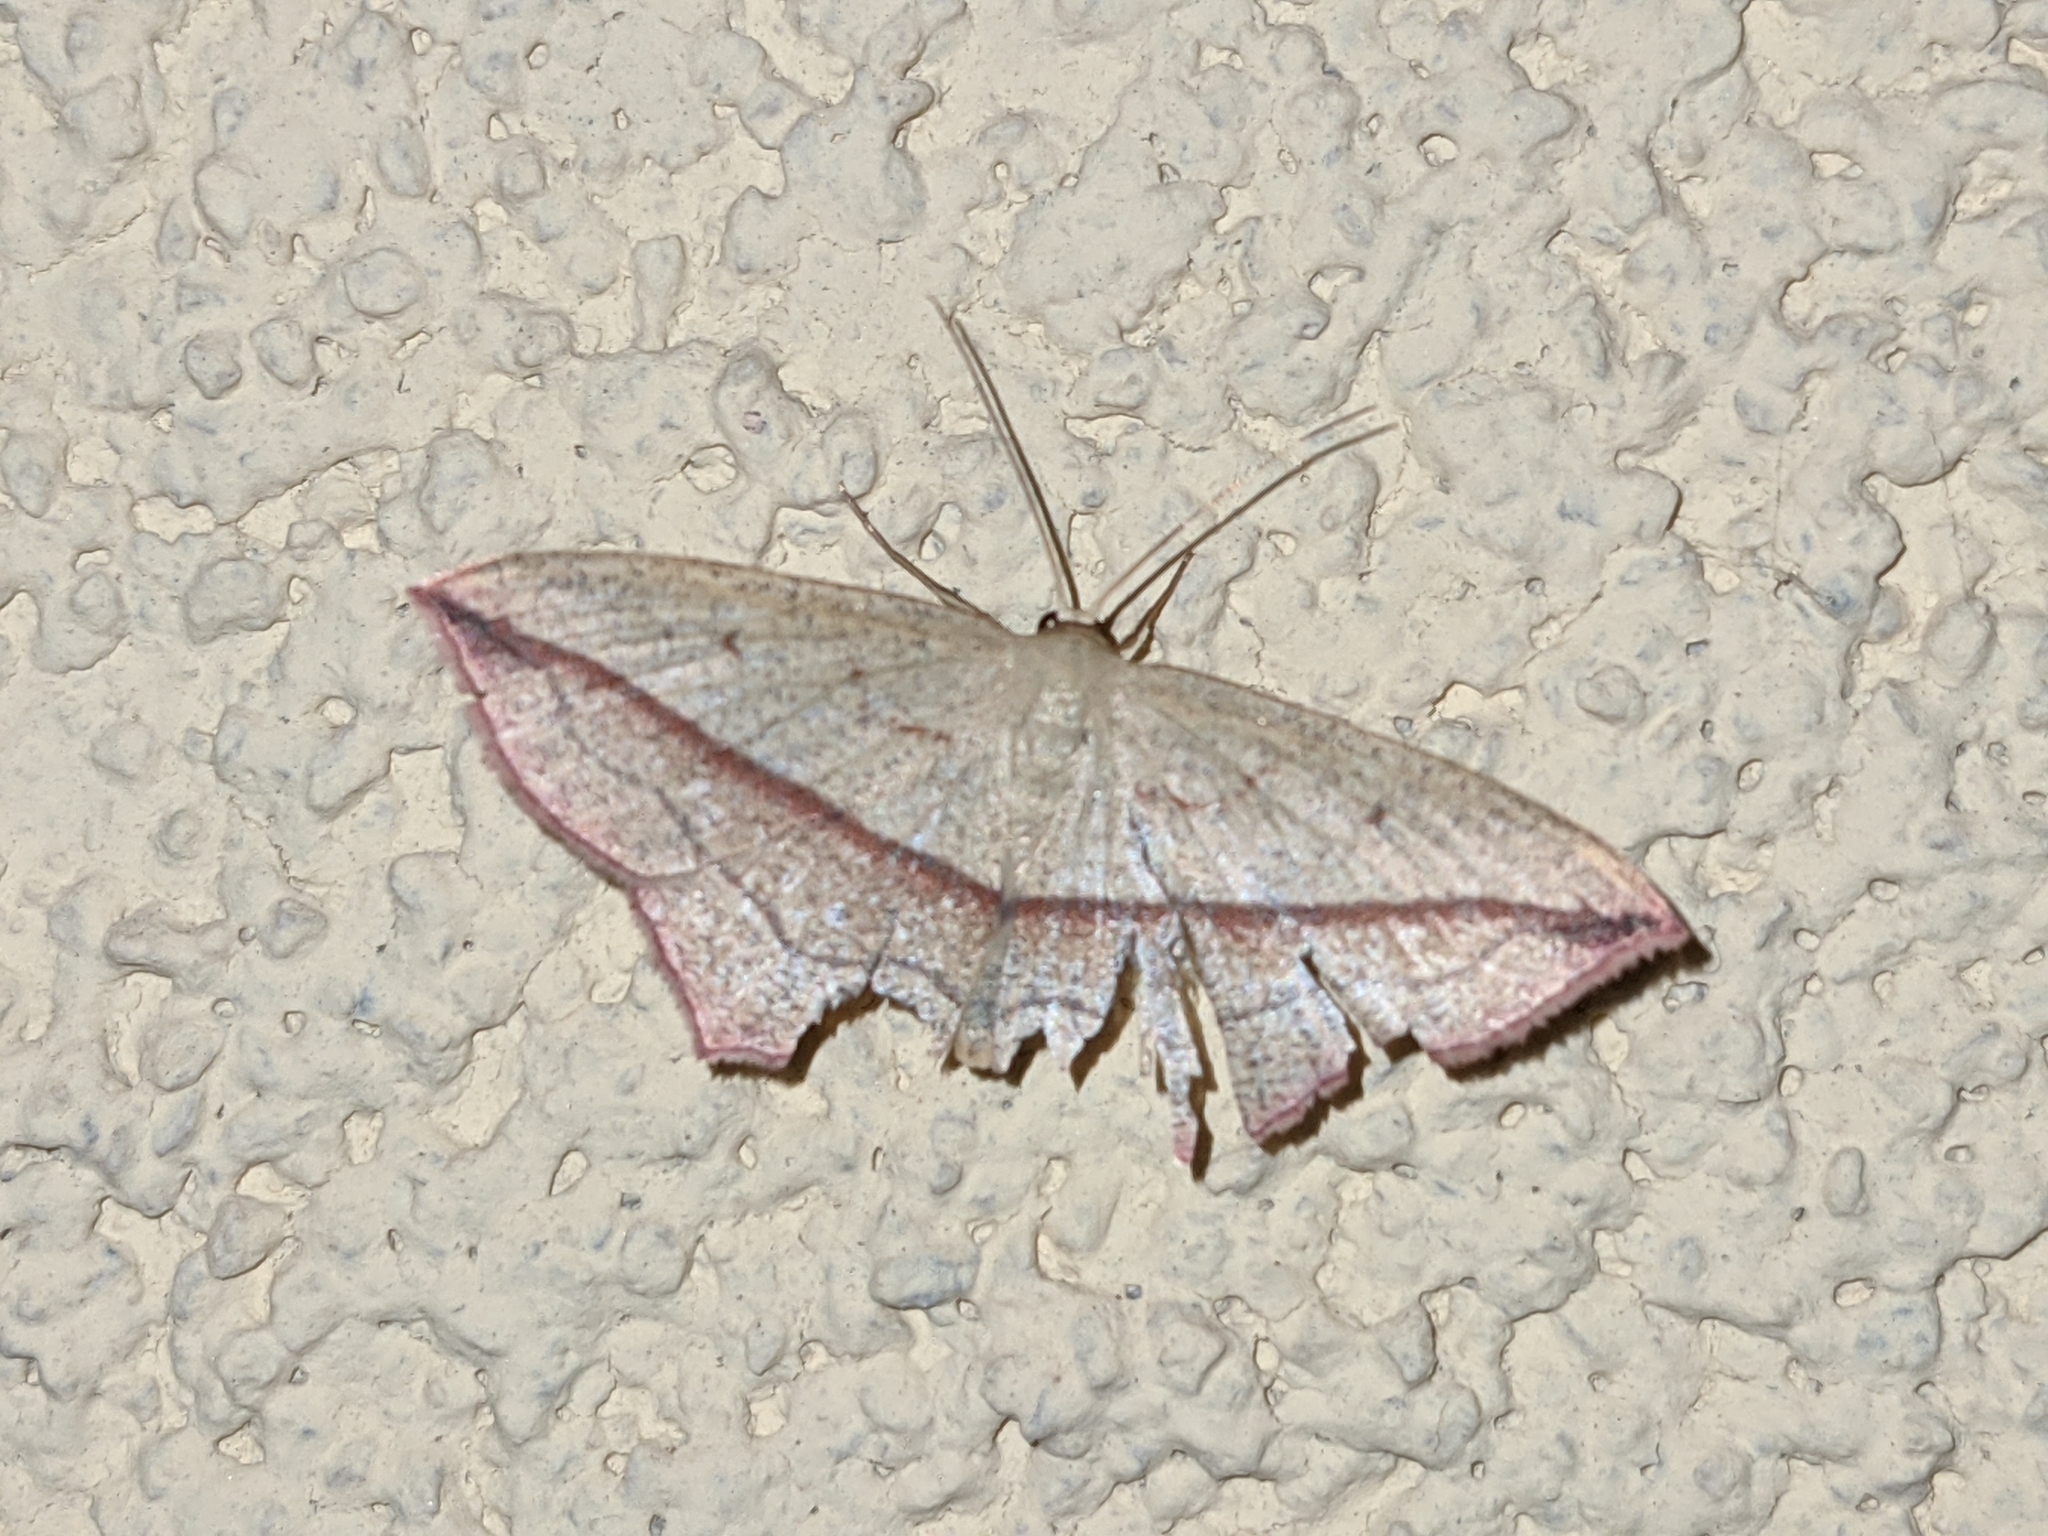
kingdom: Animalia
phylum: Arthropoda
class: Insecta
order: Lepidoptera
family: Geometridae
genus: Timandra
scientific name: Timandra comae
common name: Blood-vein
